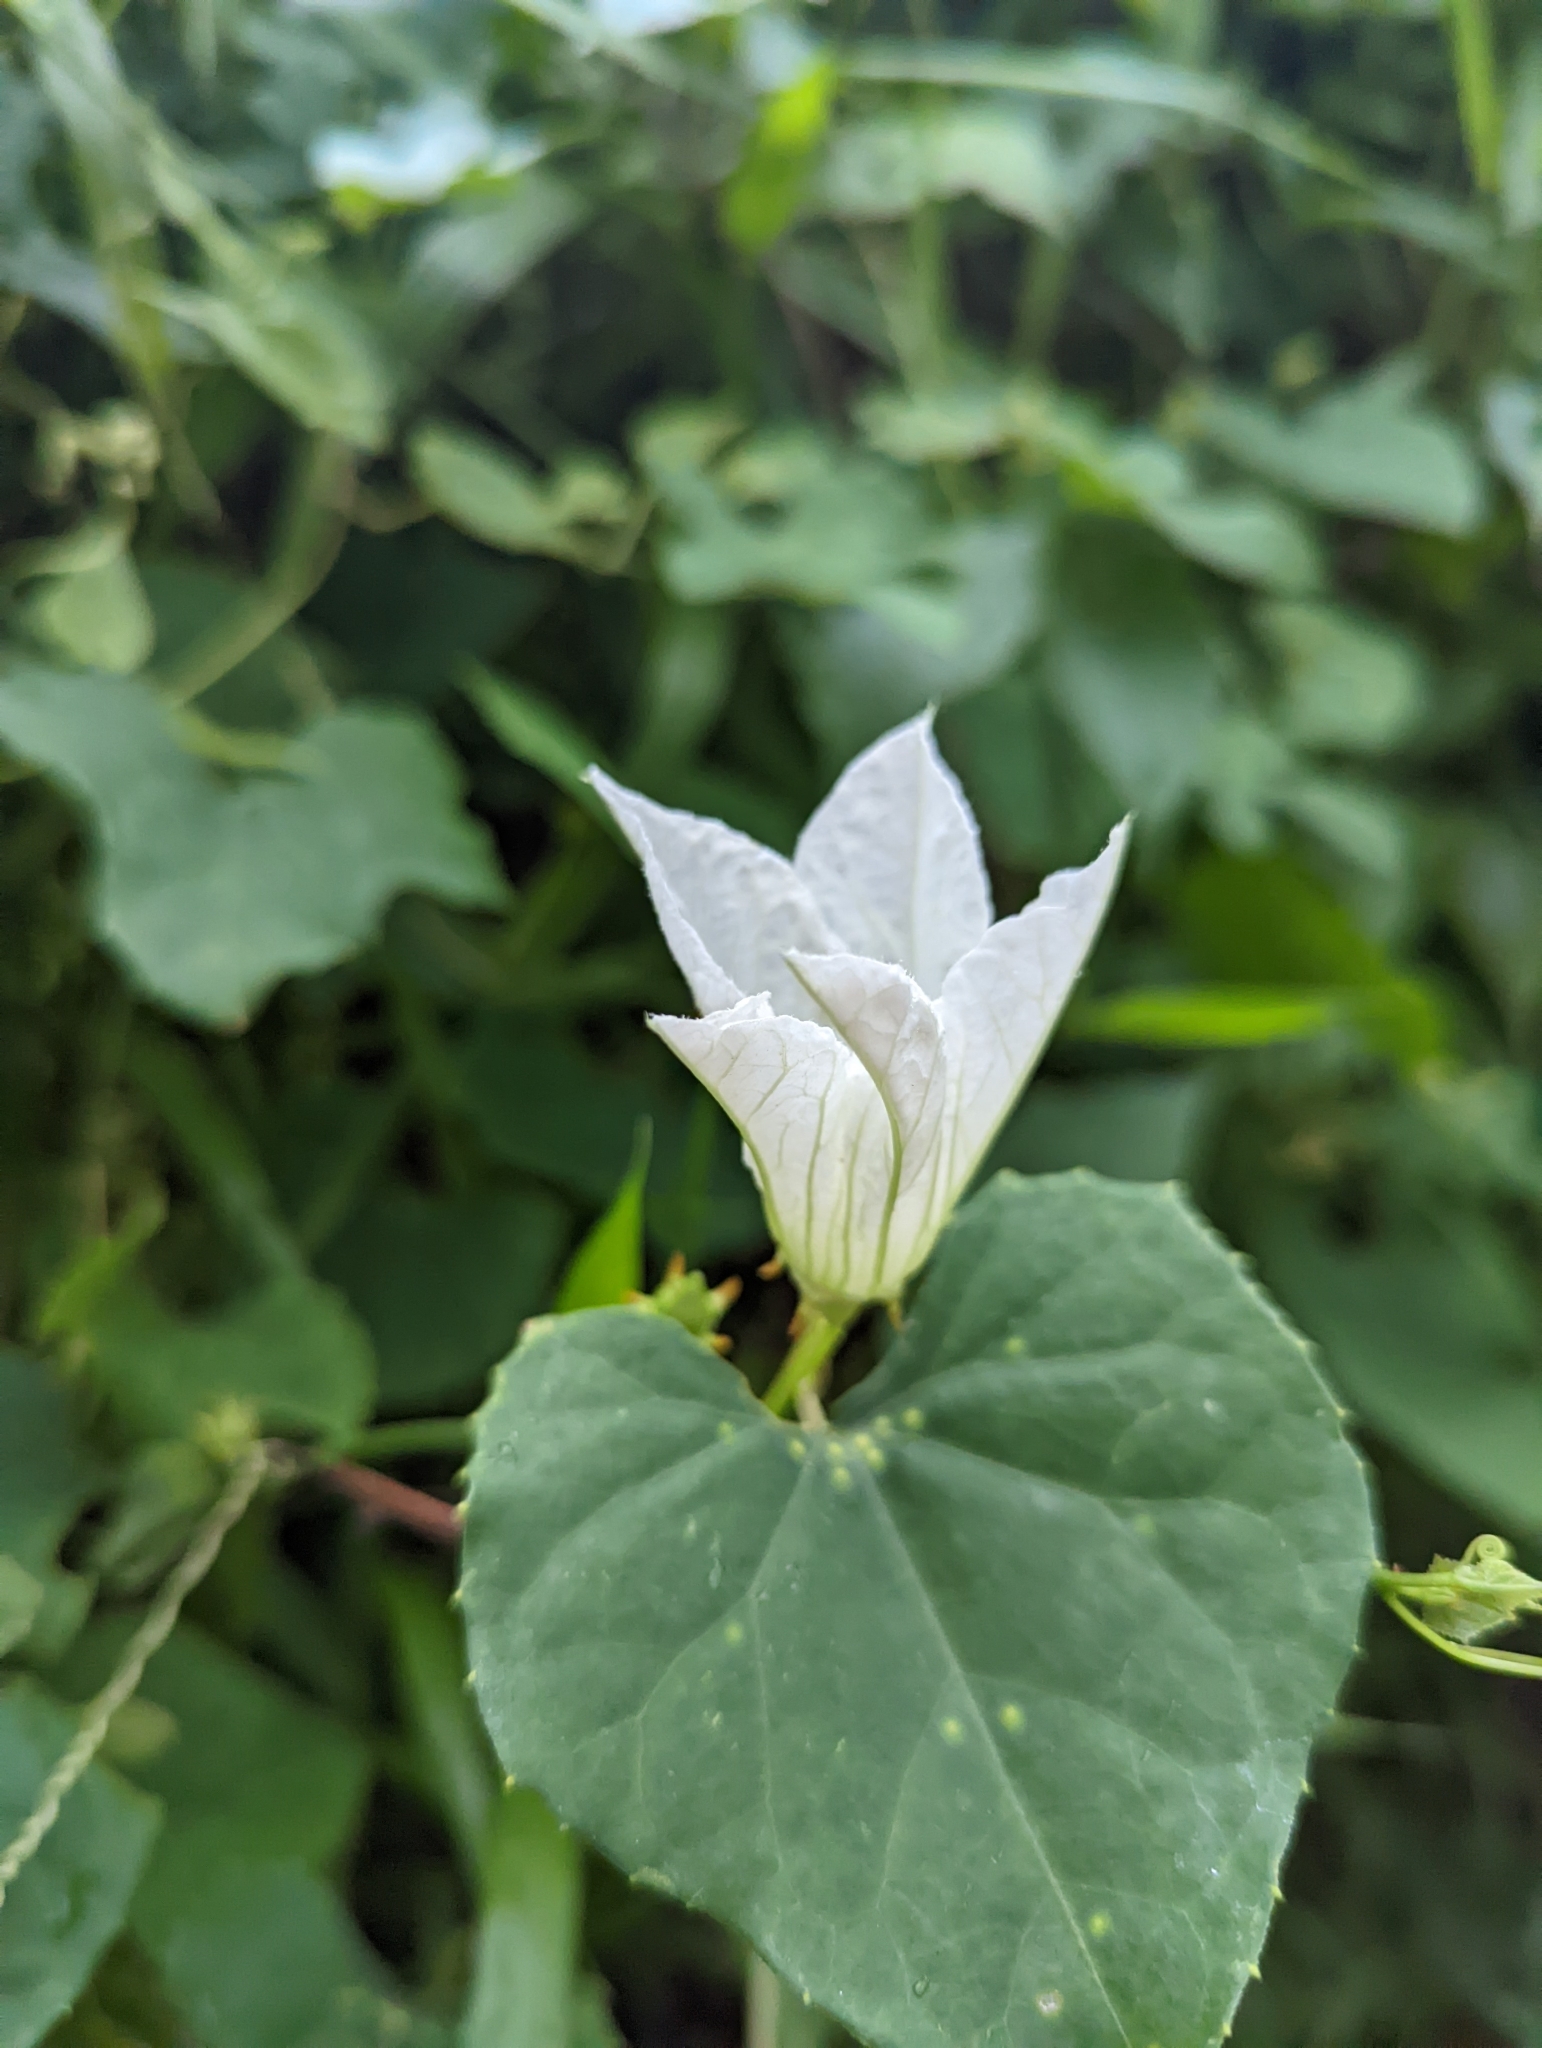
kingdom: Plantae
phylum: Tracheophyta
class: Magnoliopsida
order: Cucurbitales
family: Cucurbitaceae
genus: Coccinia
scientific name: Coccinia grandis
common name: Ivy gourd
